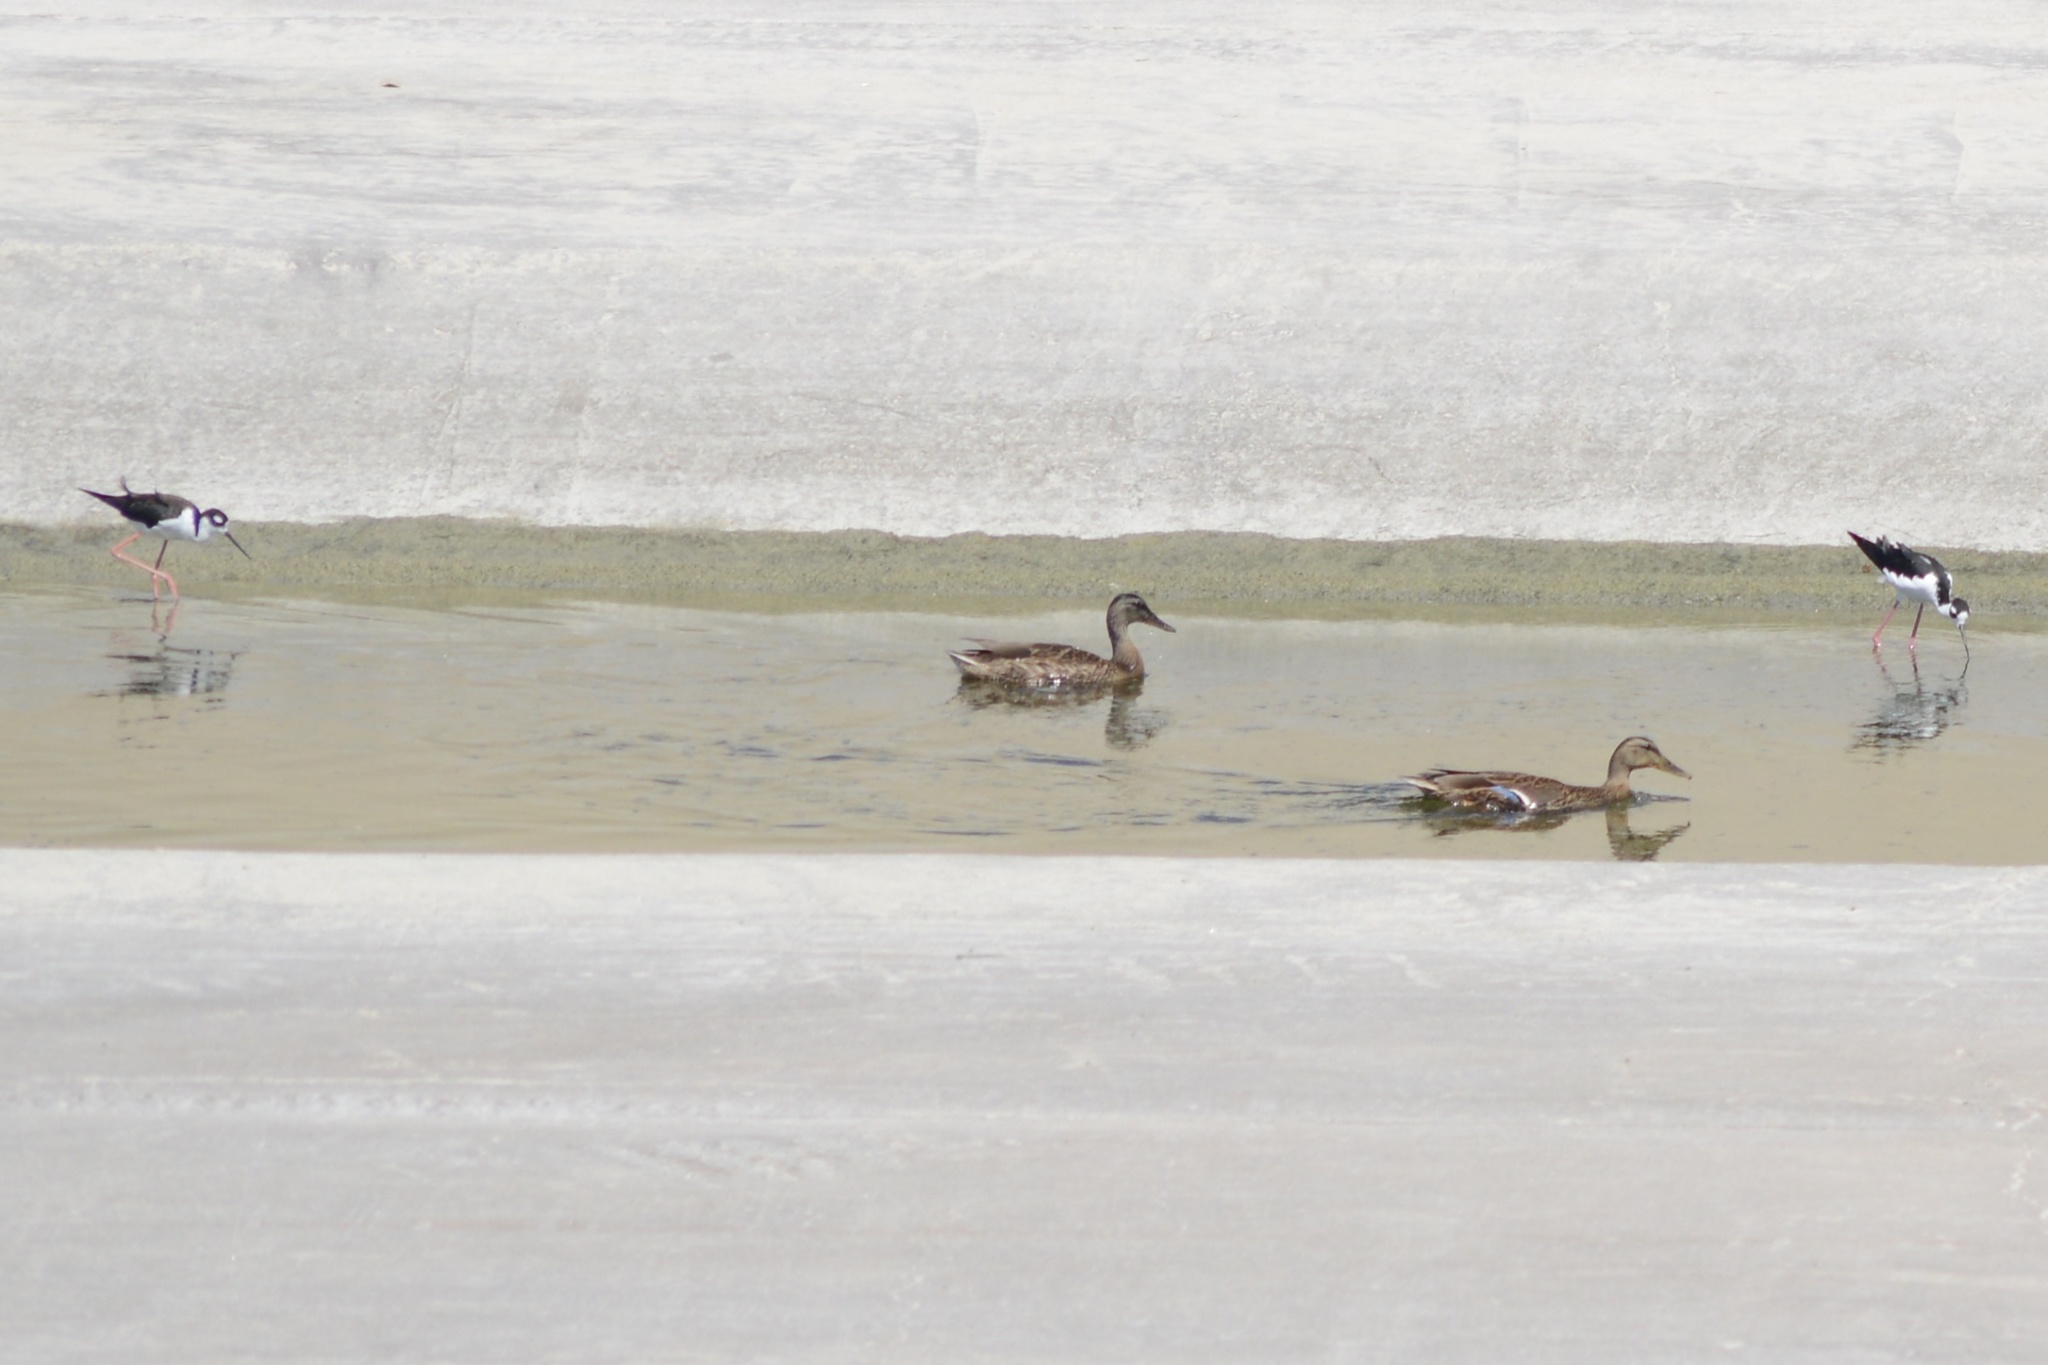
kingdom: Animalia
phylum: Chordata
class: Aves
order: Anseriformes
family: Anatidae
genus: Anas
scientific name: Anas platyrhynchos
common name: Mallard
